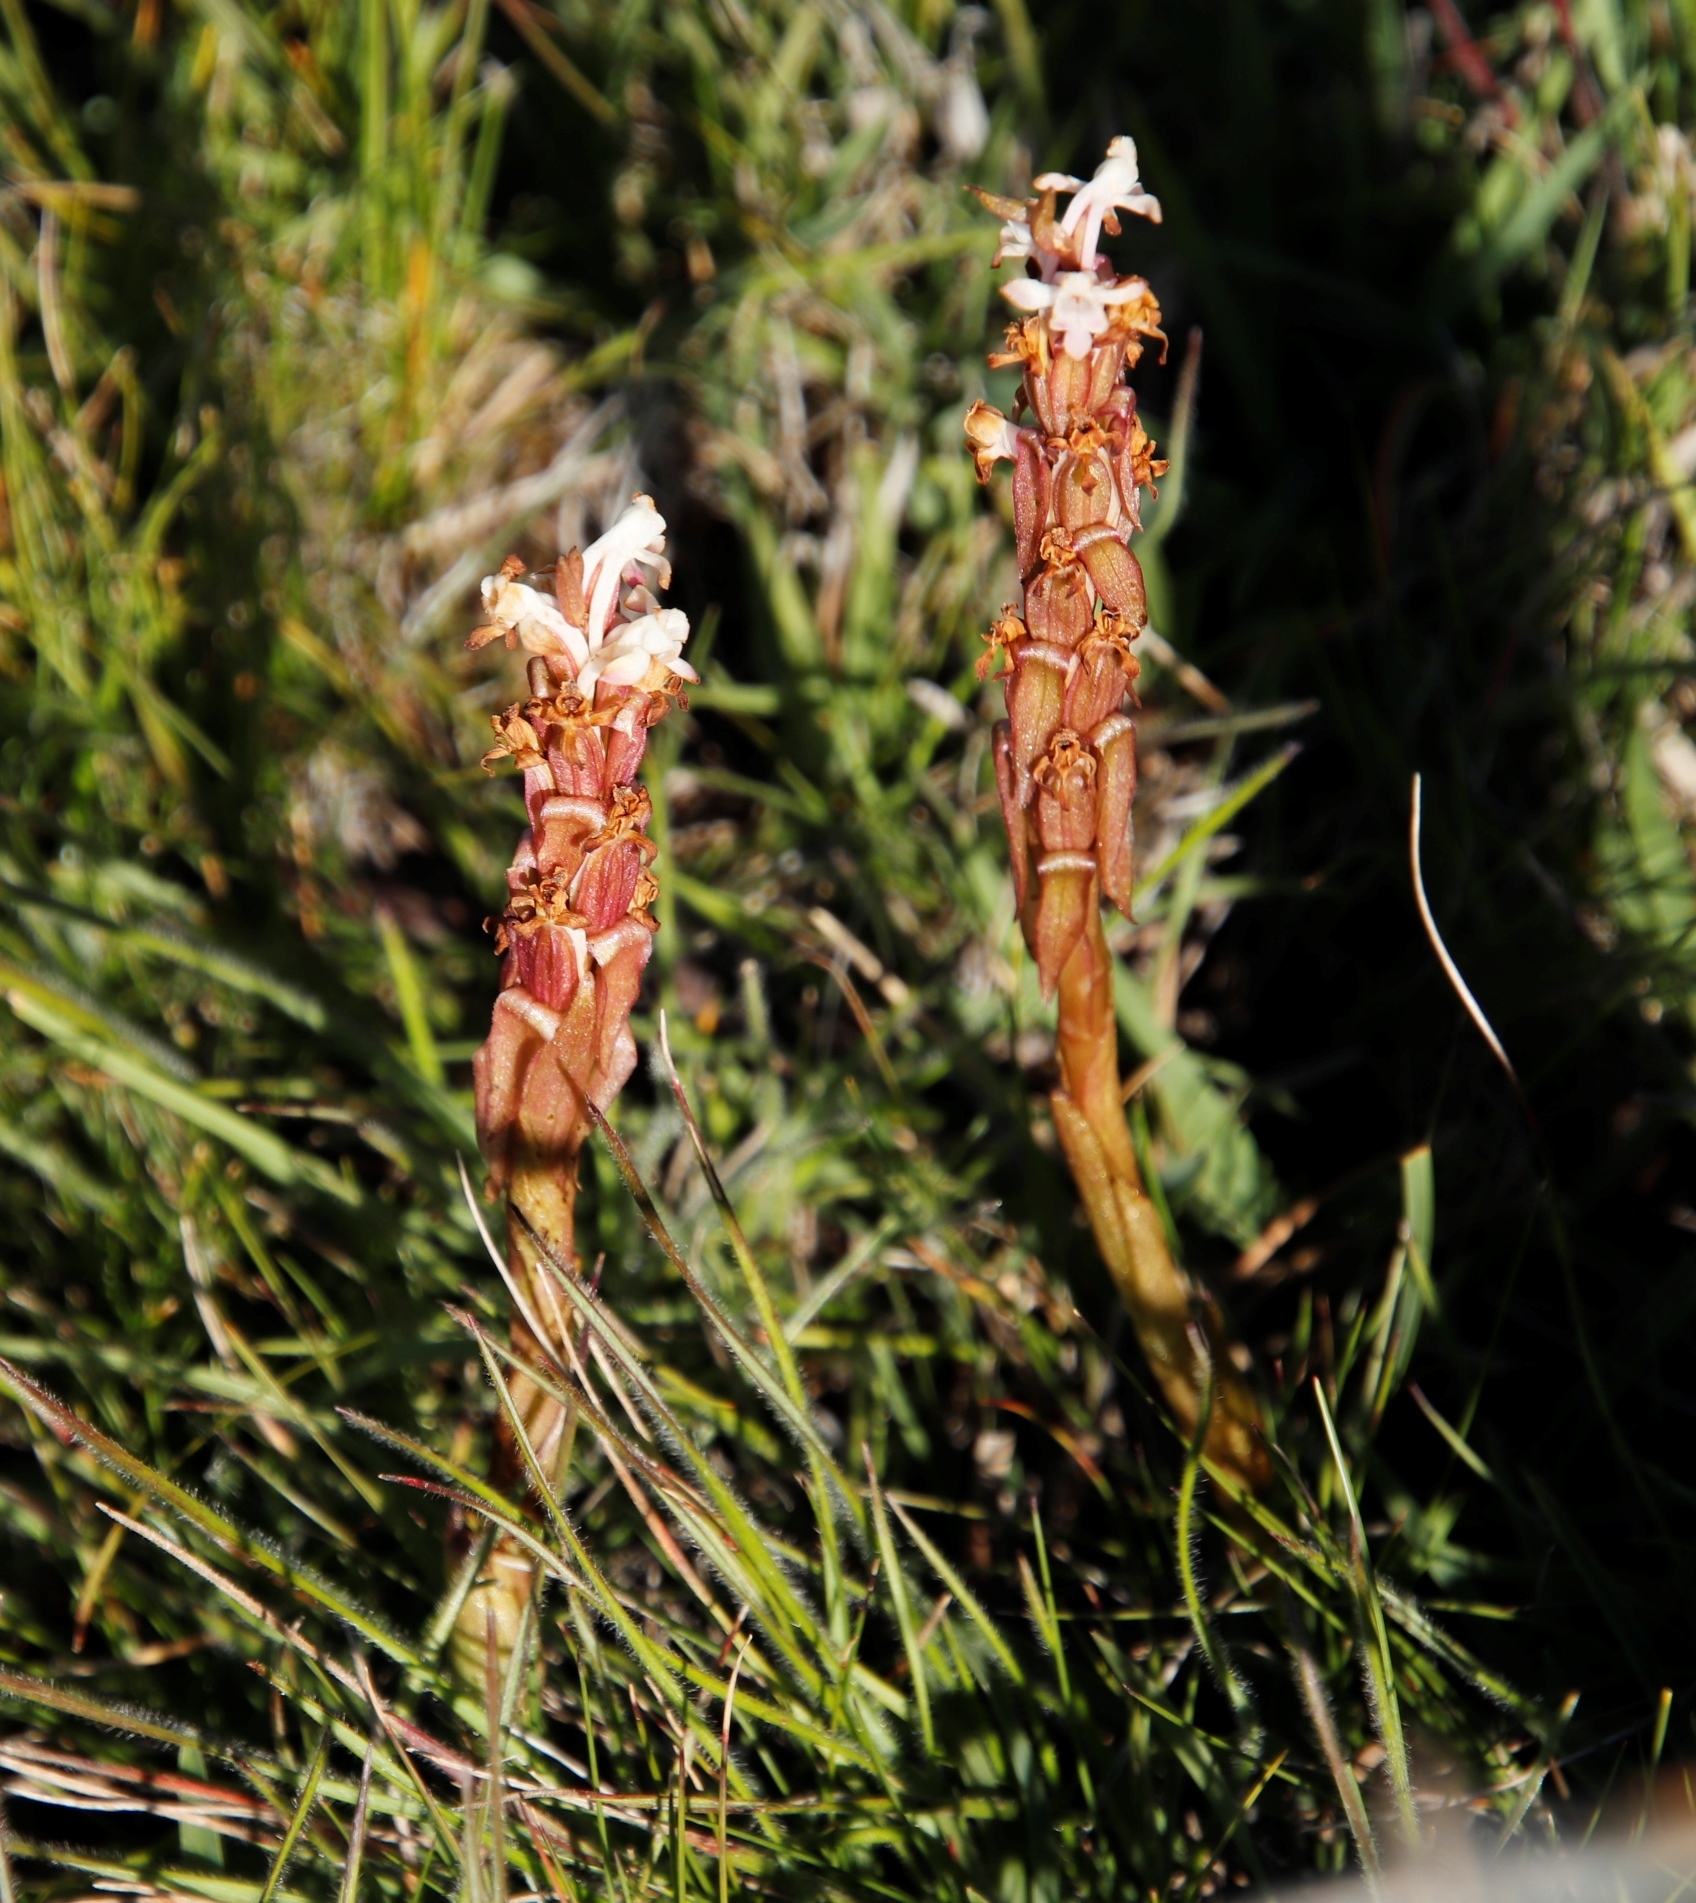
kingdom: Plantae
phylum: Tracheophyta
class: Liliopsida
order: Asparagales
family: Orchidaceae
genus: Satyrium
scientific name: Satyrium longicauda
